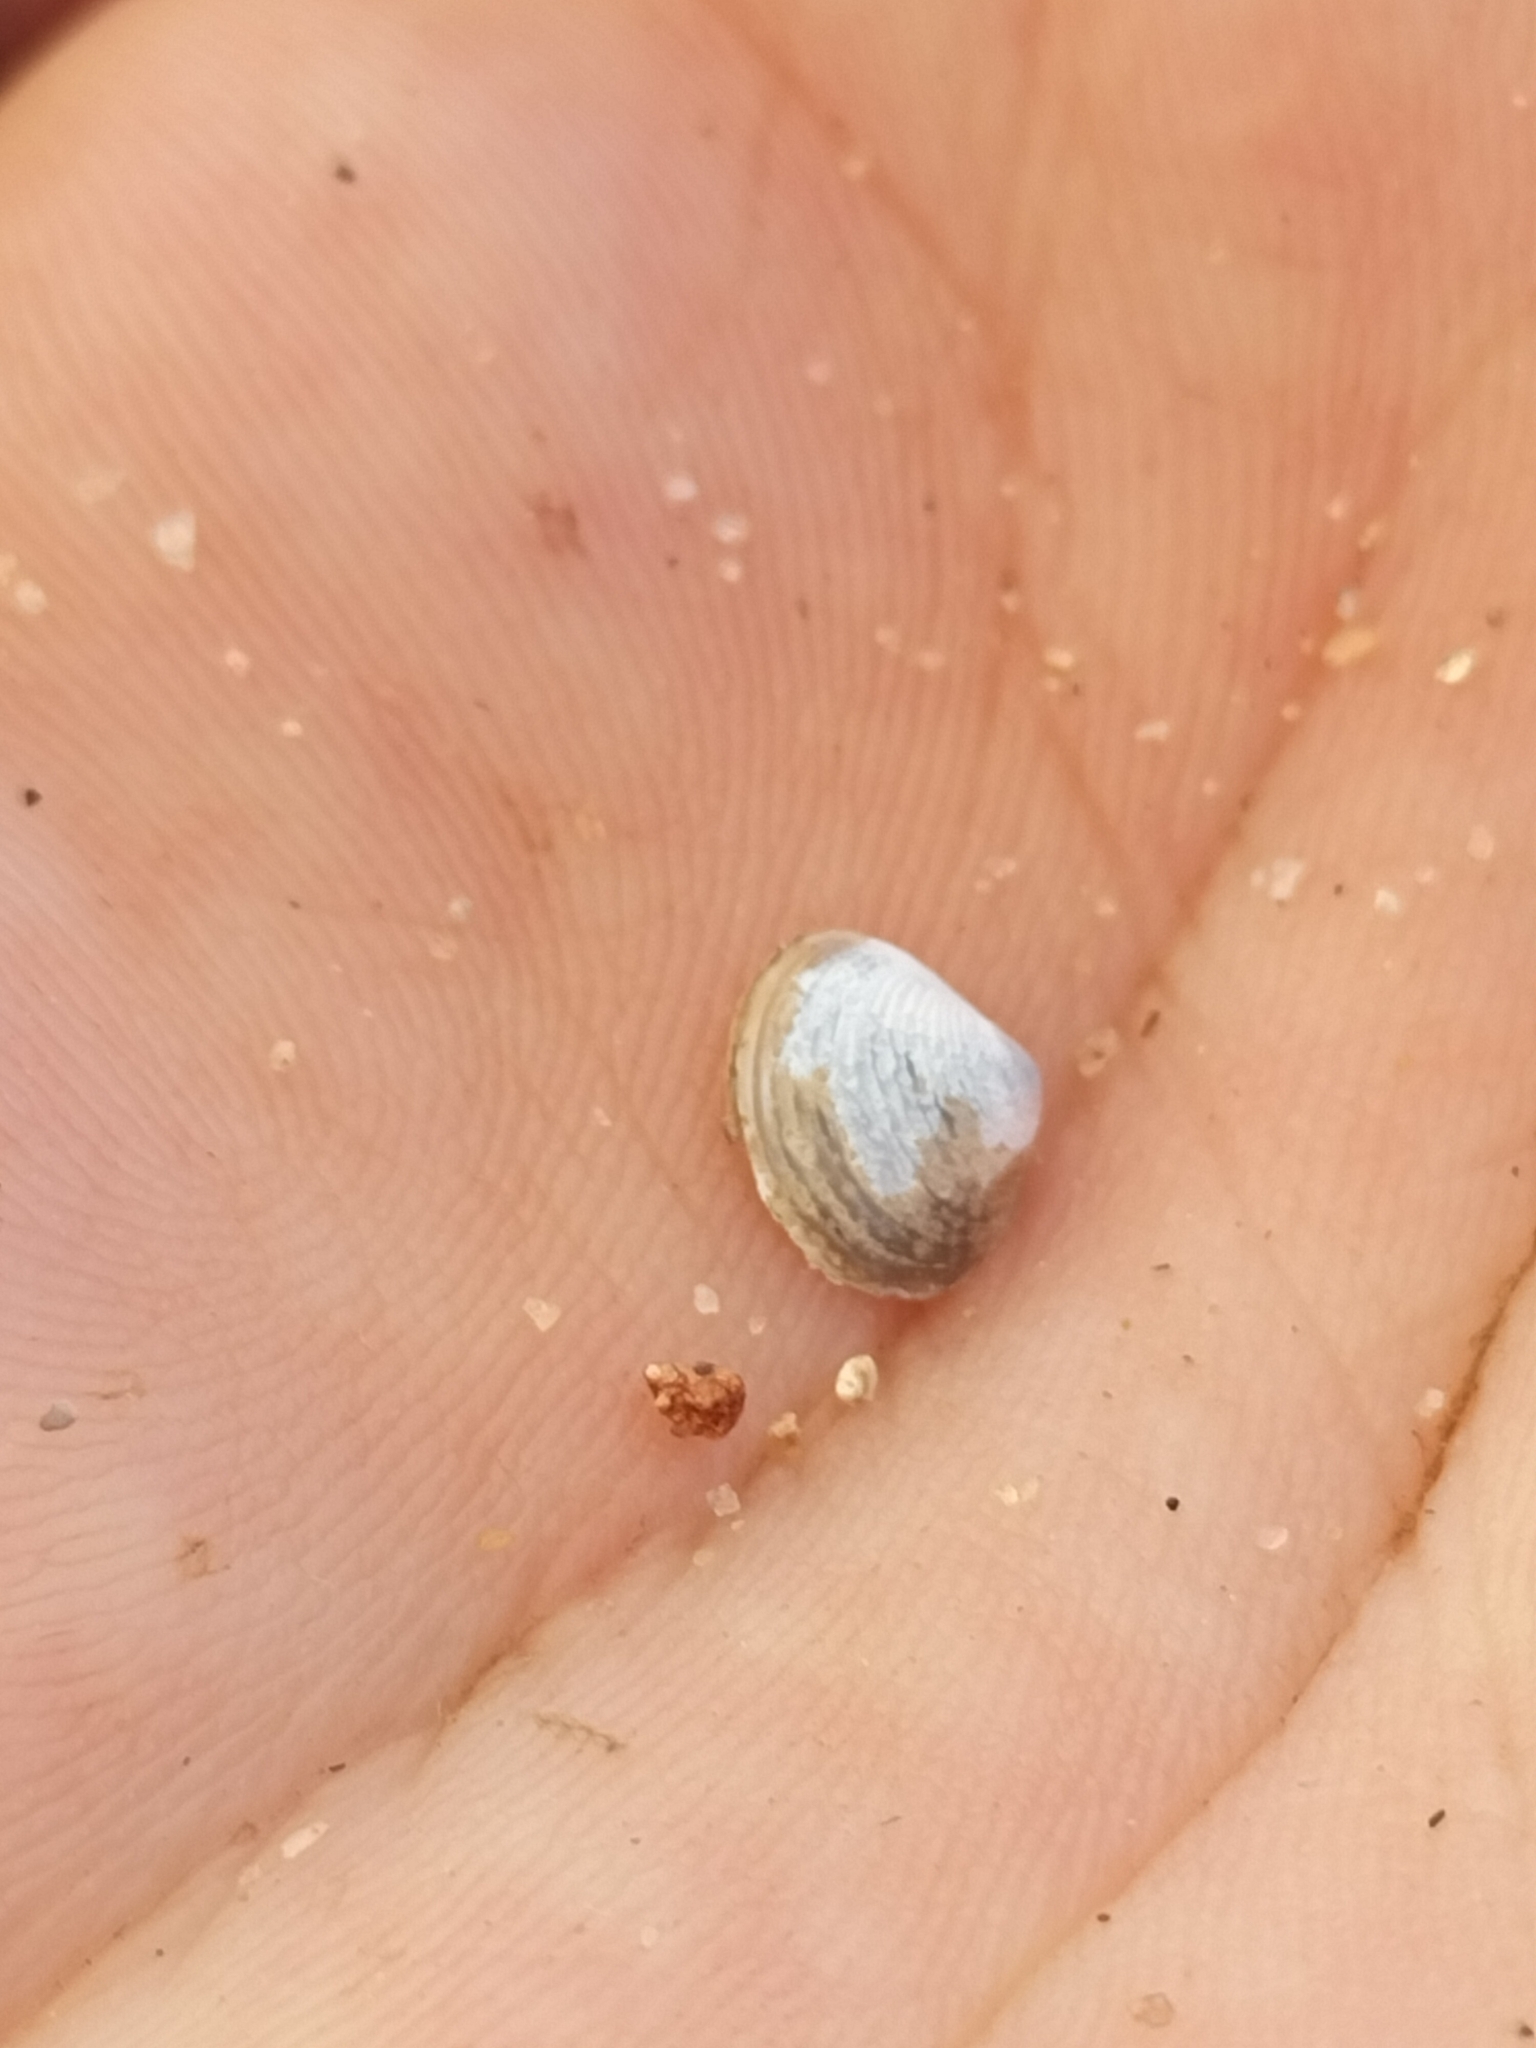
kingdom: Animalia
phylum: Mollusca
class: Bivalvia
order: Venerida
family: Cyrenidae
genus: Corbicula
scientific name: Corbicula australis
